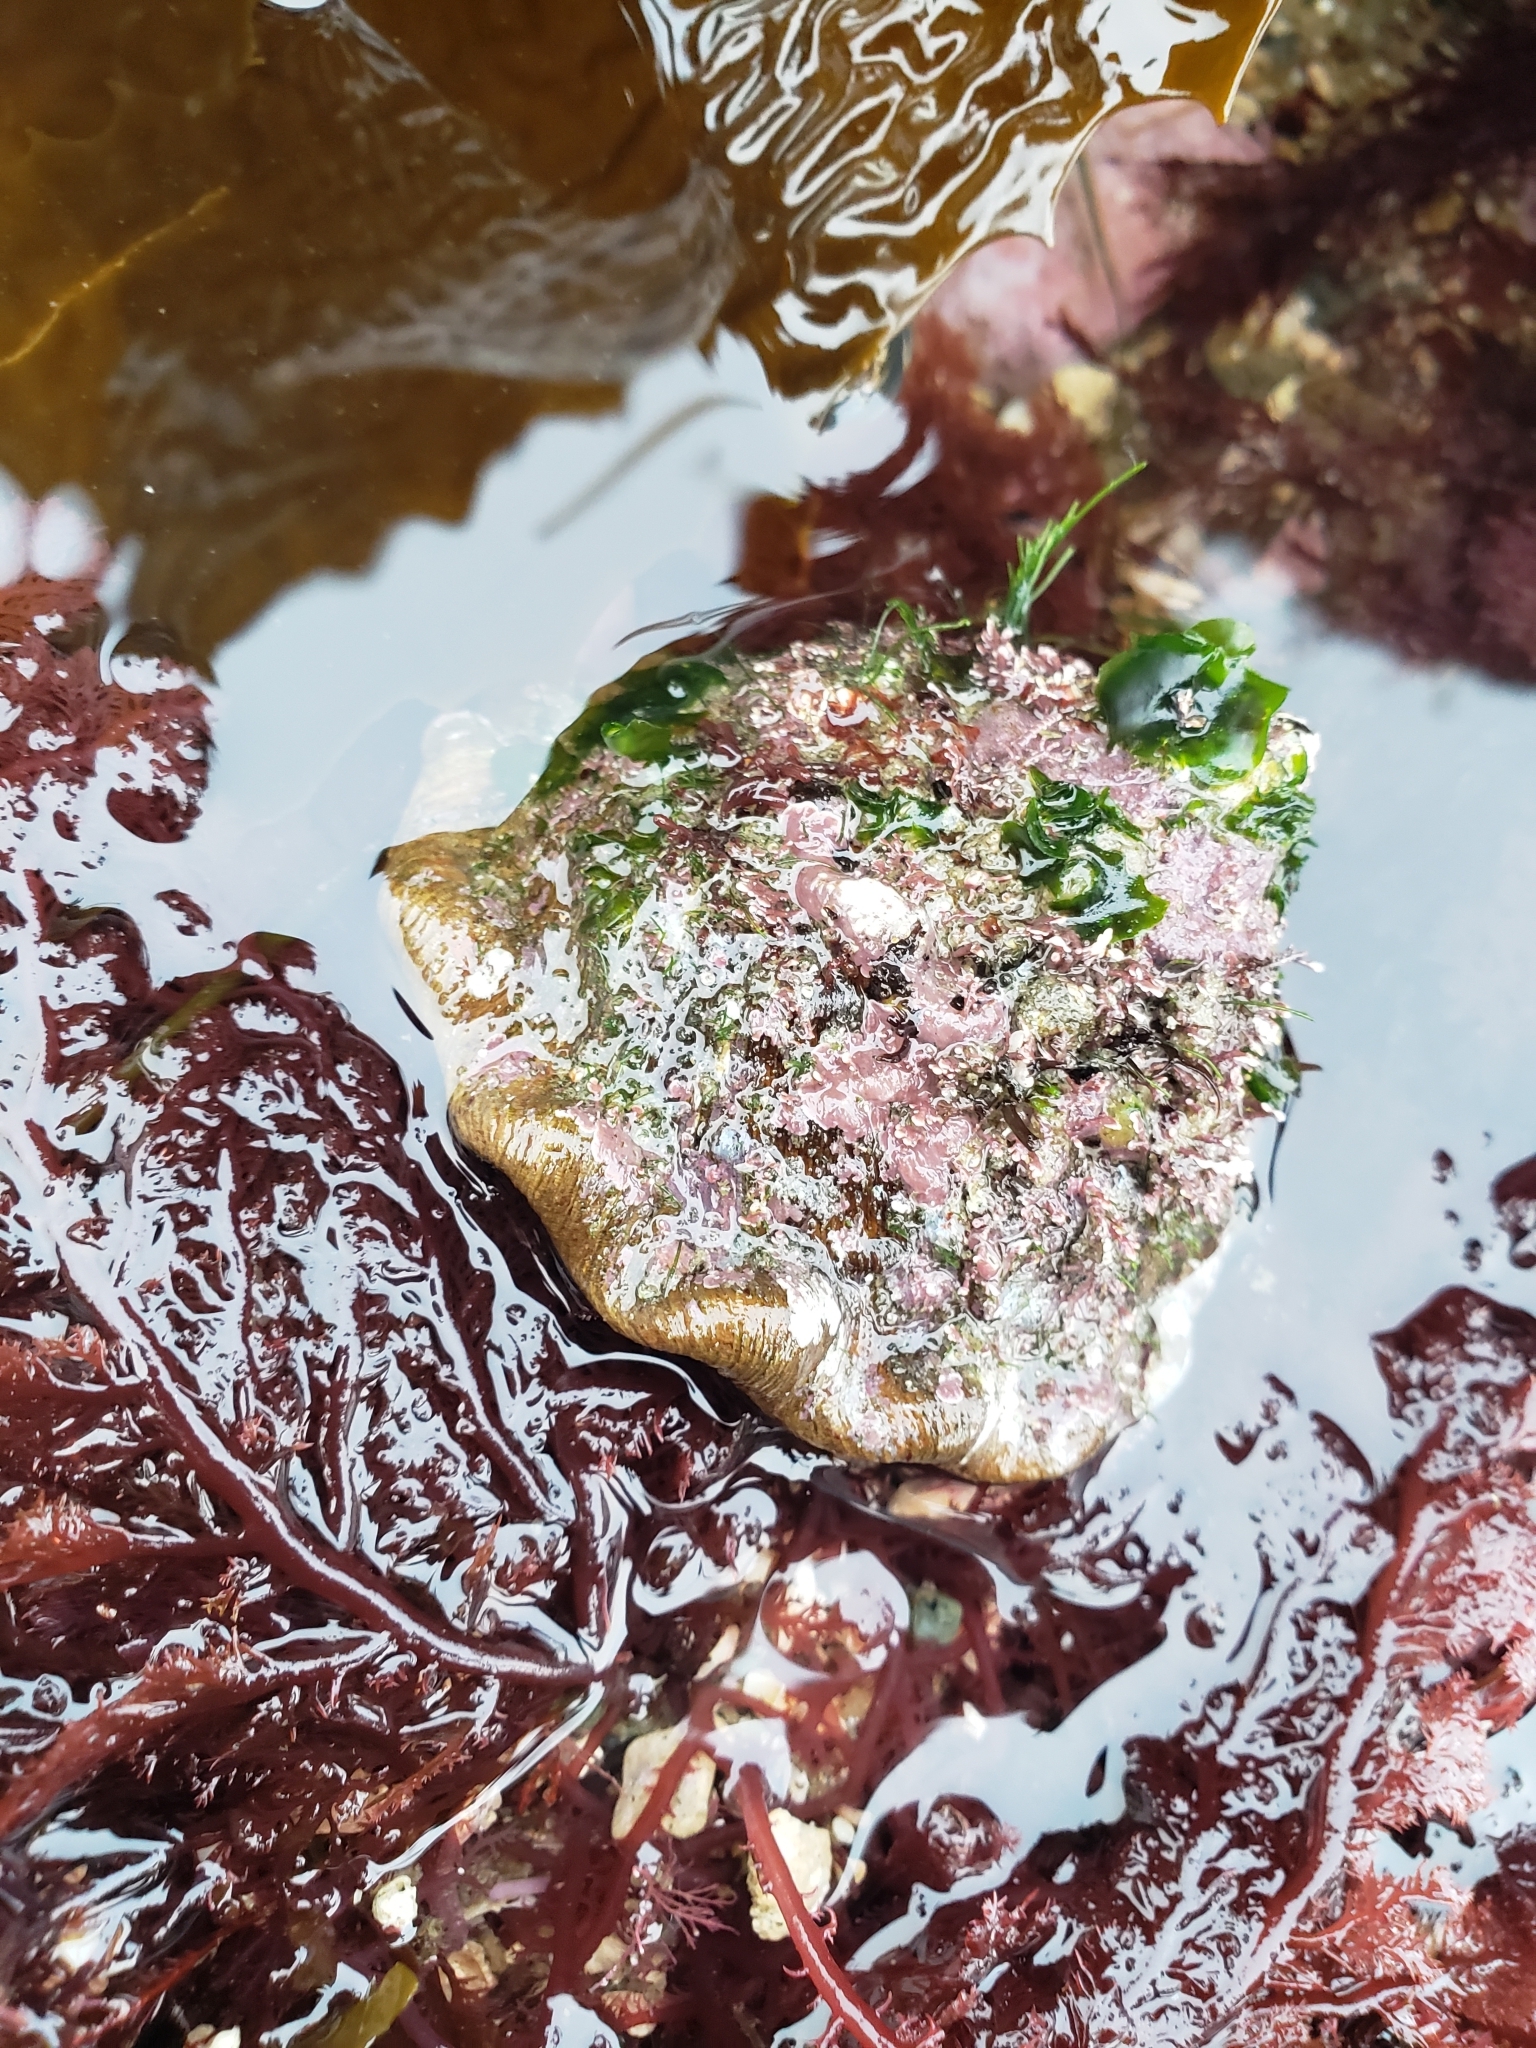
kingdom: Animalia
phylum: Mollusca
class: Gastropoda
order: Trochida
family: Turbinidae
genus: Megastraea
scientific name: Megastraea undosa
